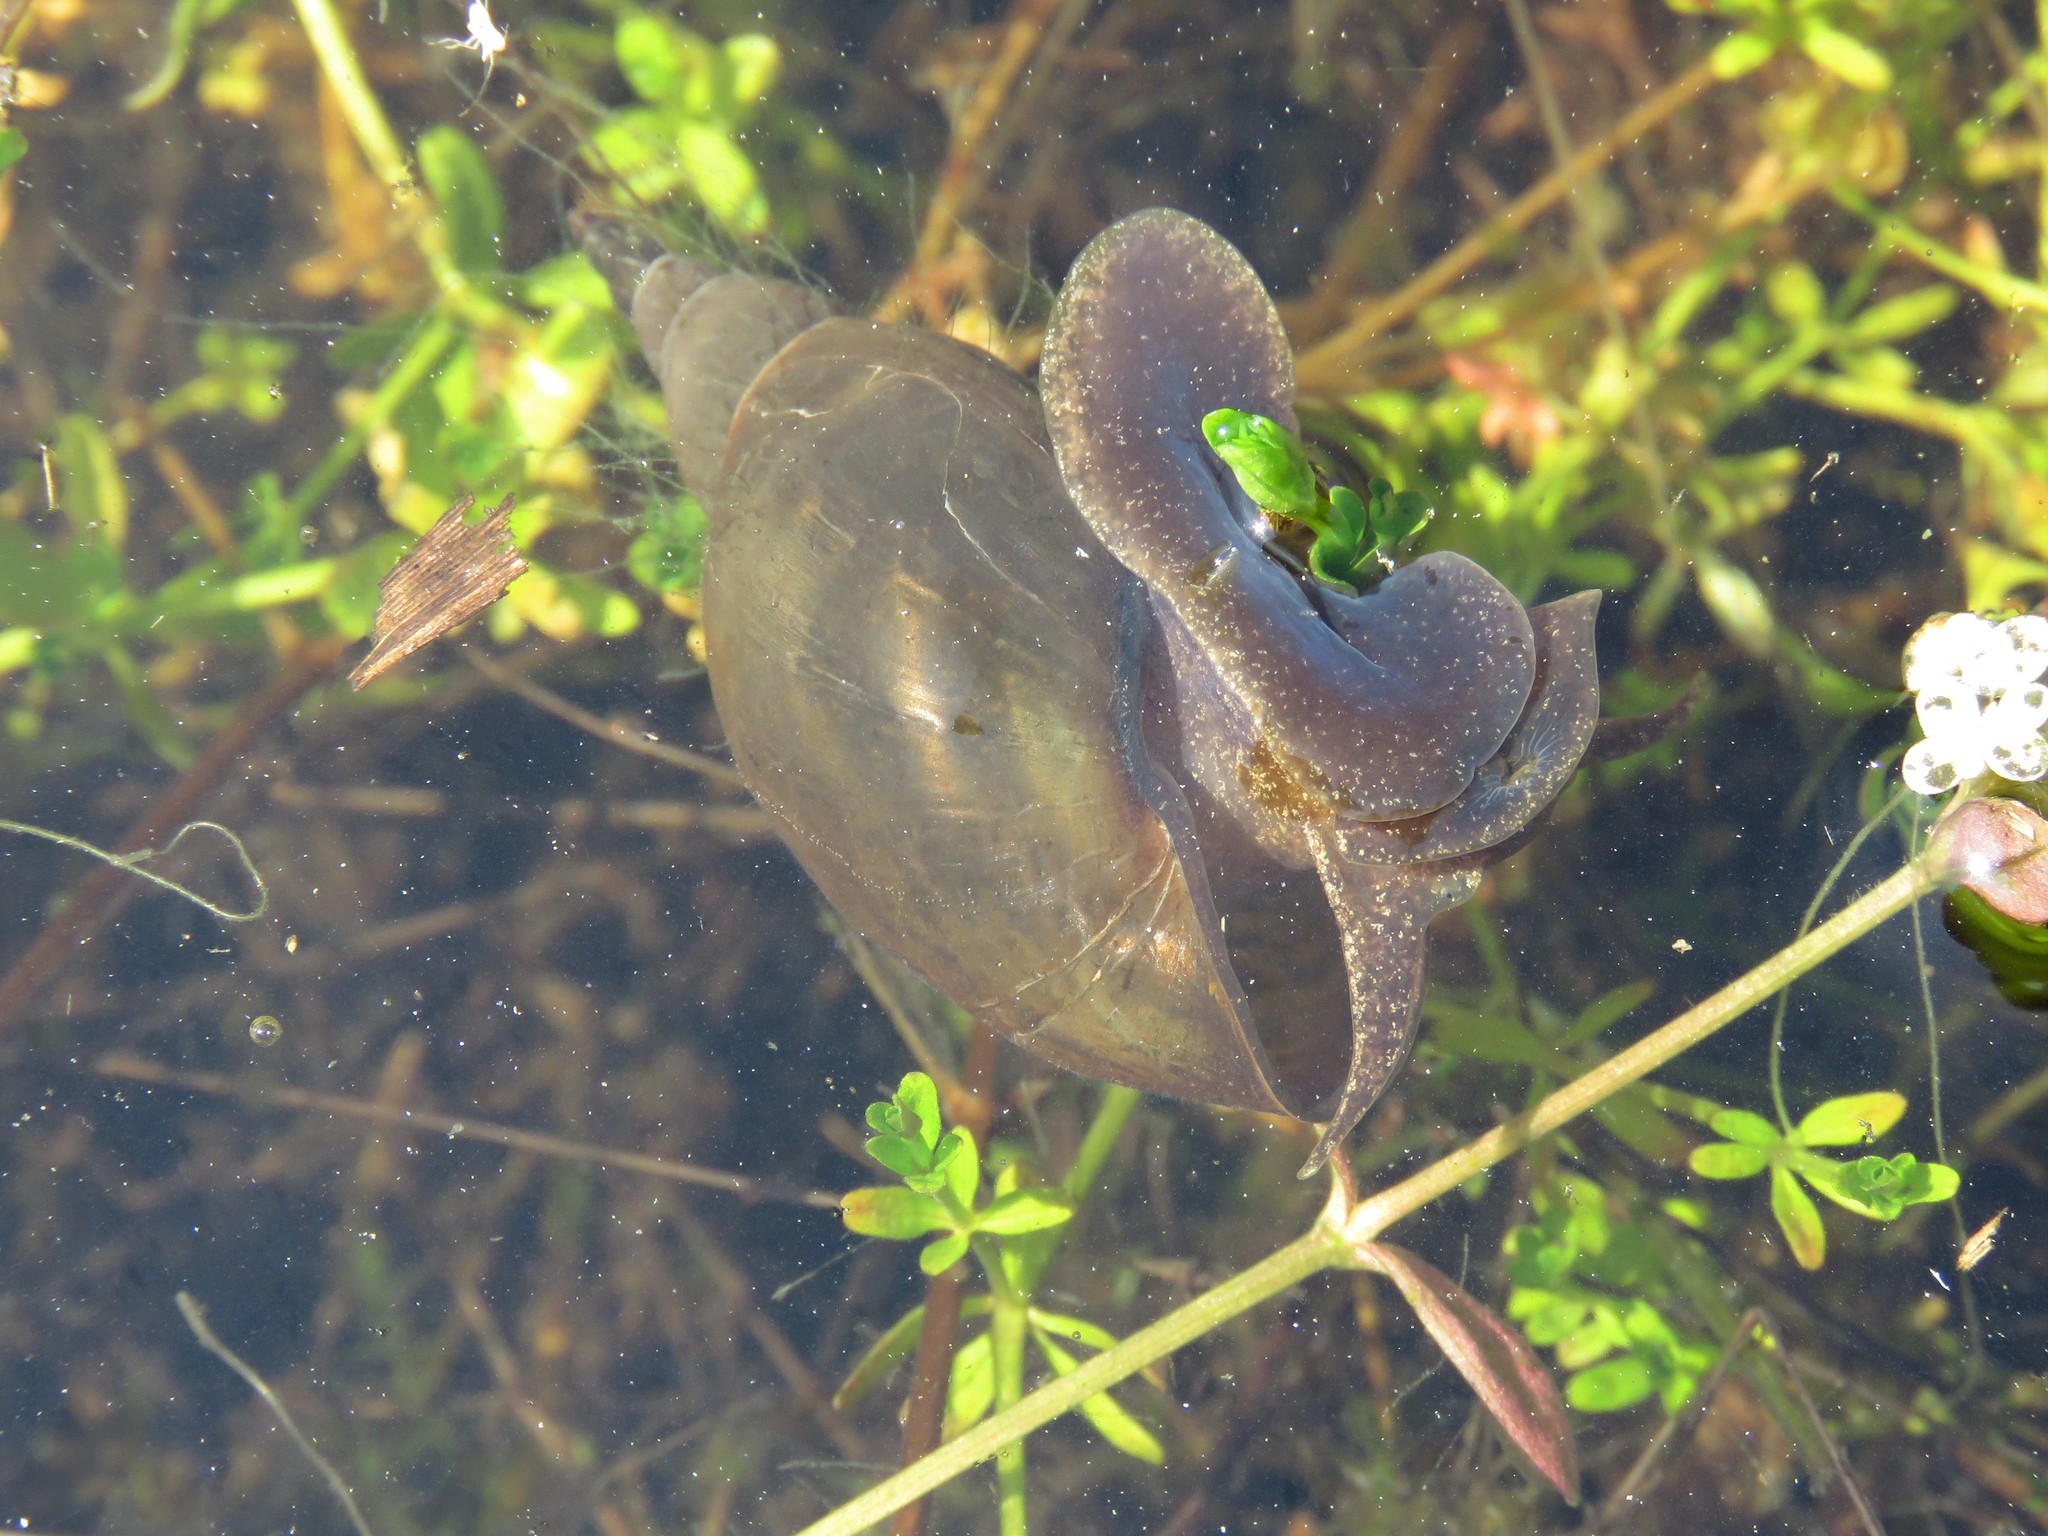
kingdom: Animalia
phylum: Mollusca
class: Gastropoda
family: Lymnaeidae
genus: Lymnaea
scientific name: Lymnaea stagnalis
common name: Great pond snail
